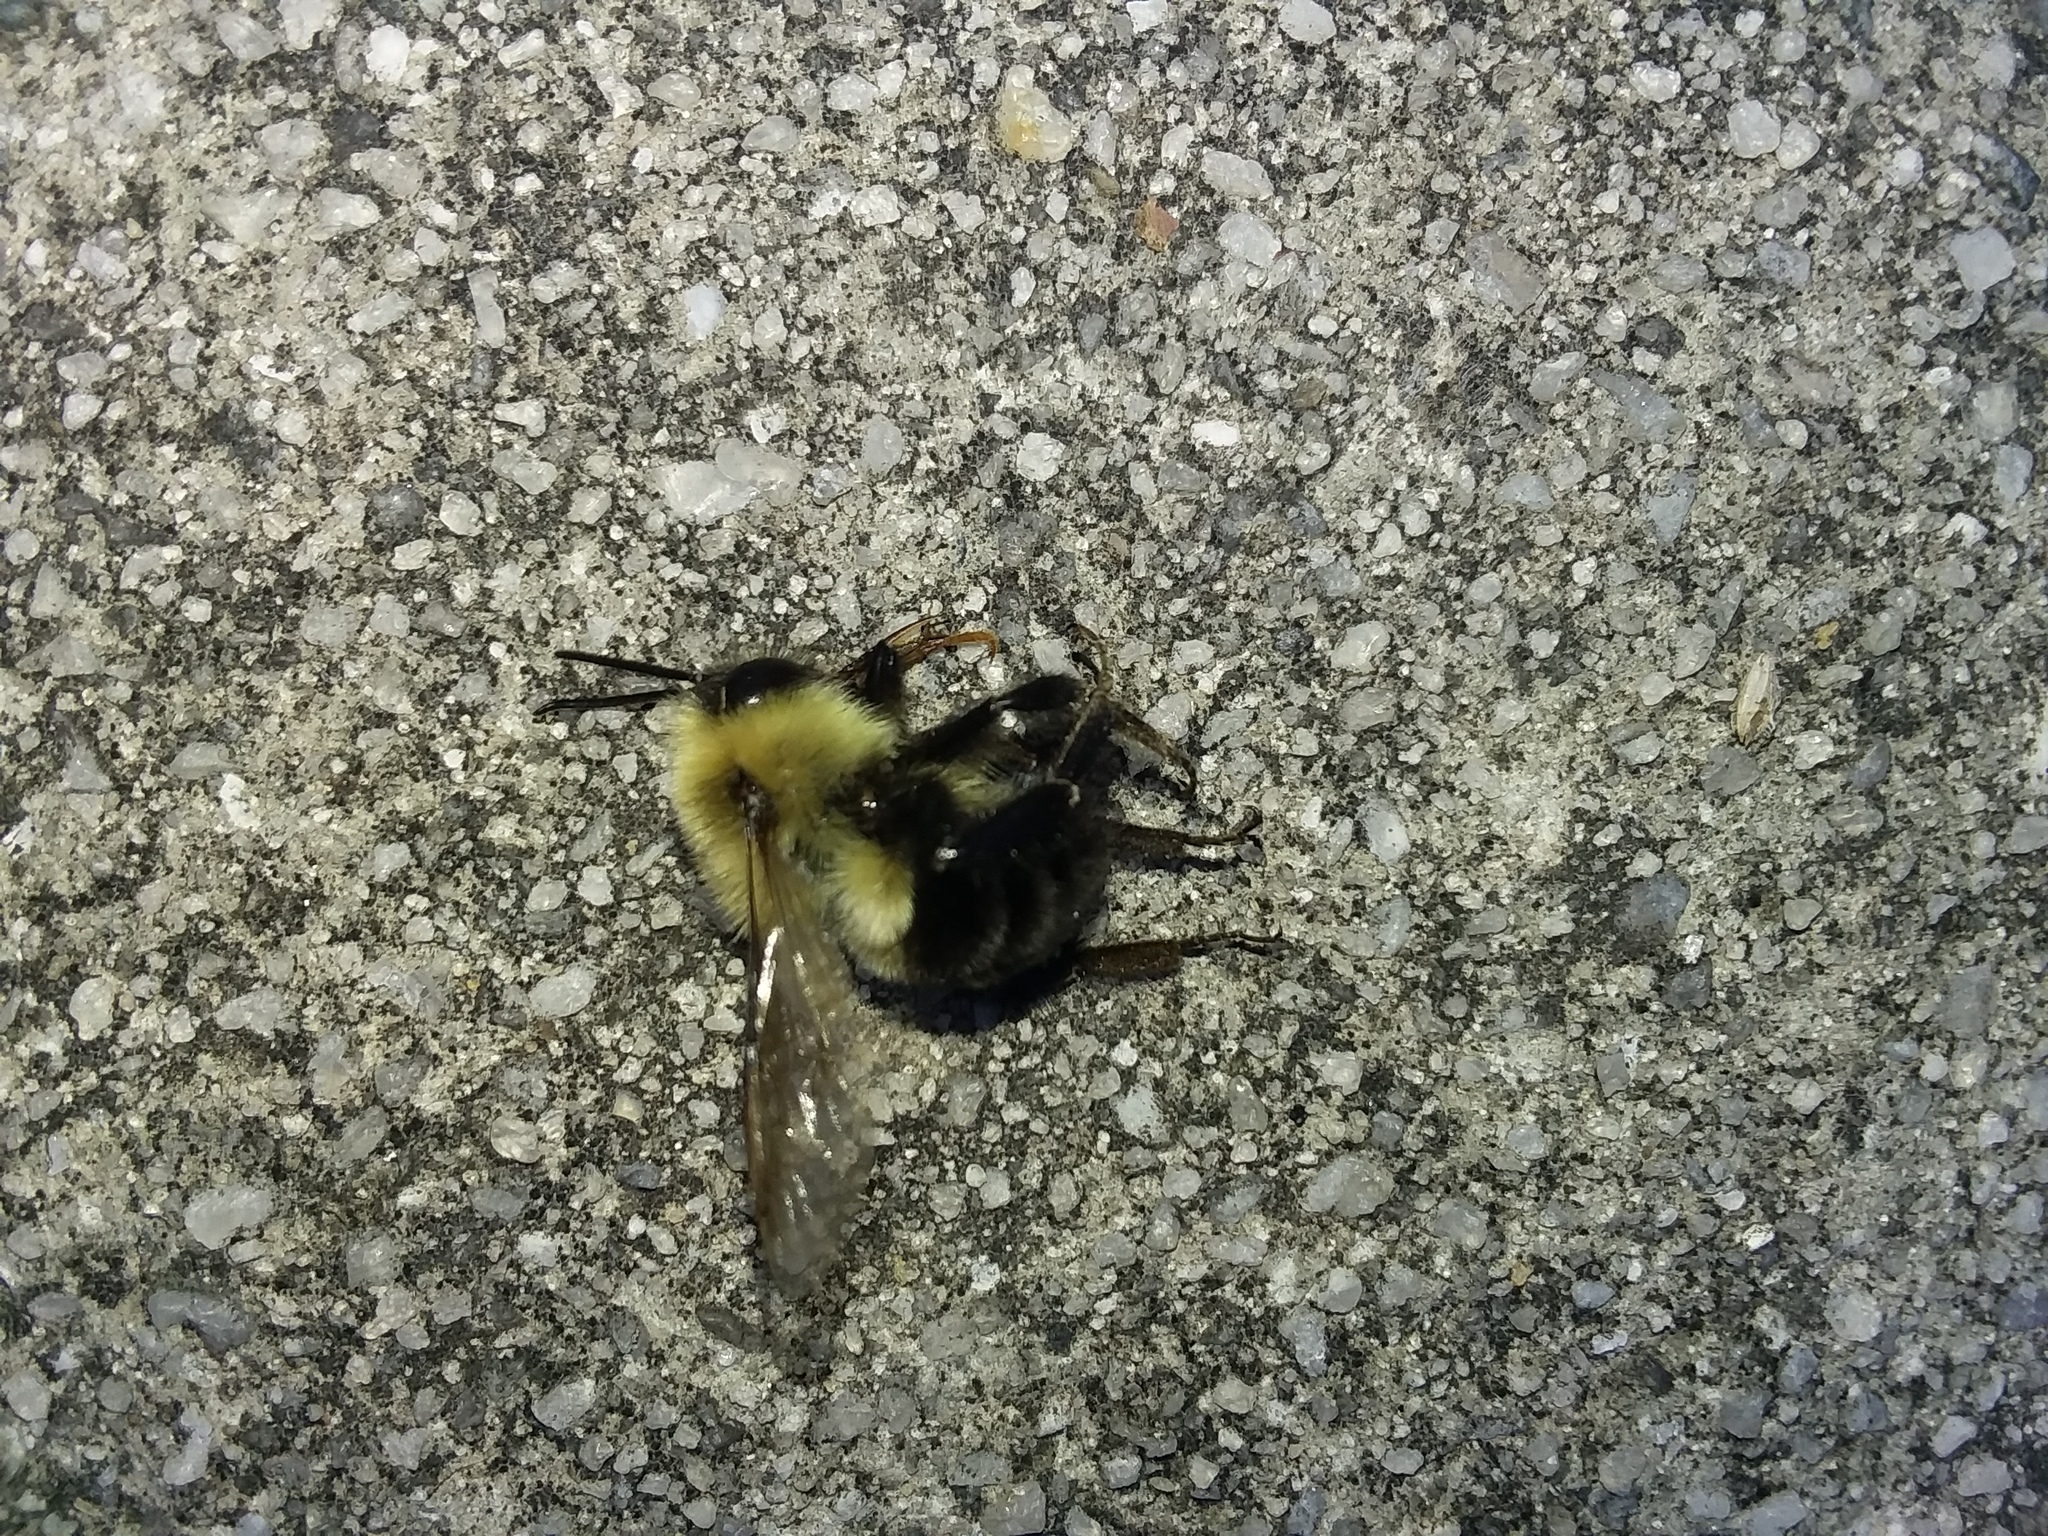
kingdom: Animalia
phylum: Arthropoda
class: Insecta
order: Hymenoptera
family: Apidae
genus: Bombus
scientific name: Bombus impatiens
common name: Common eastern bumble bee
